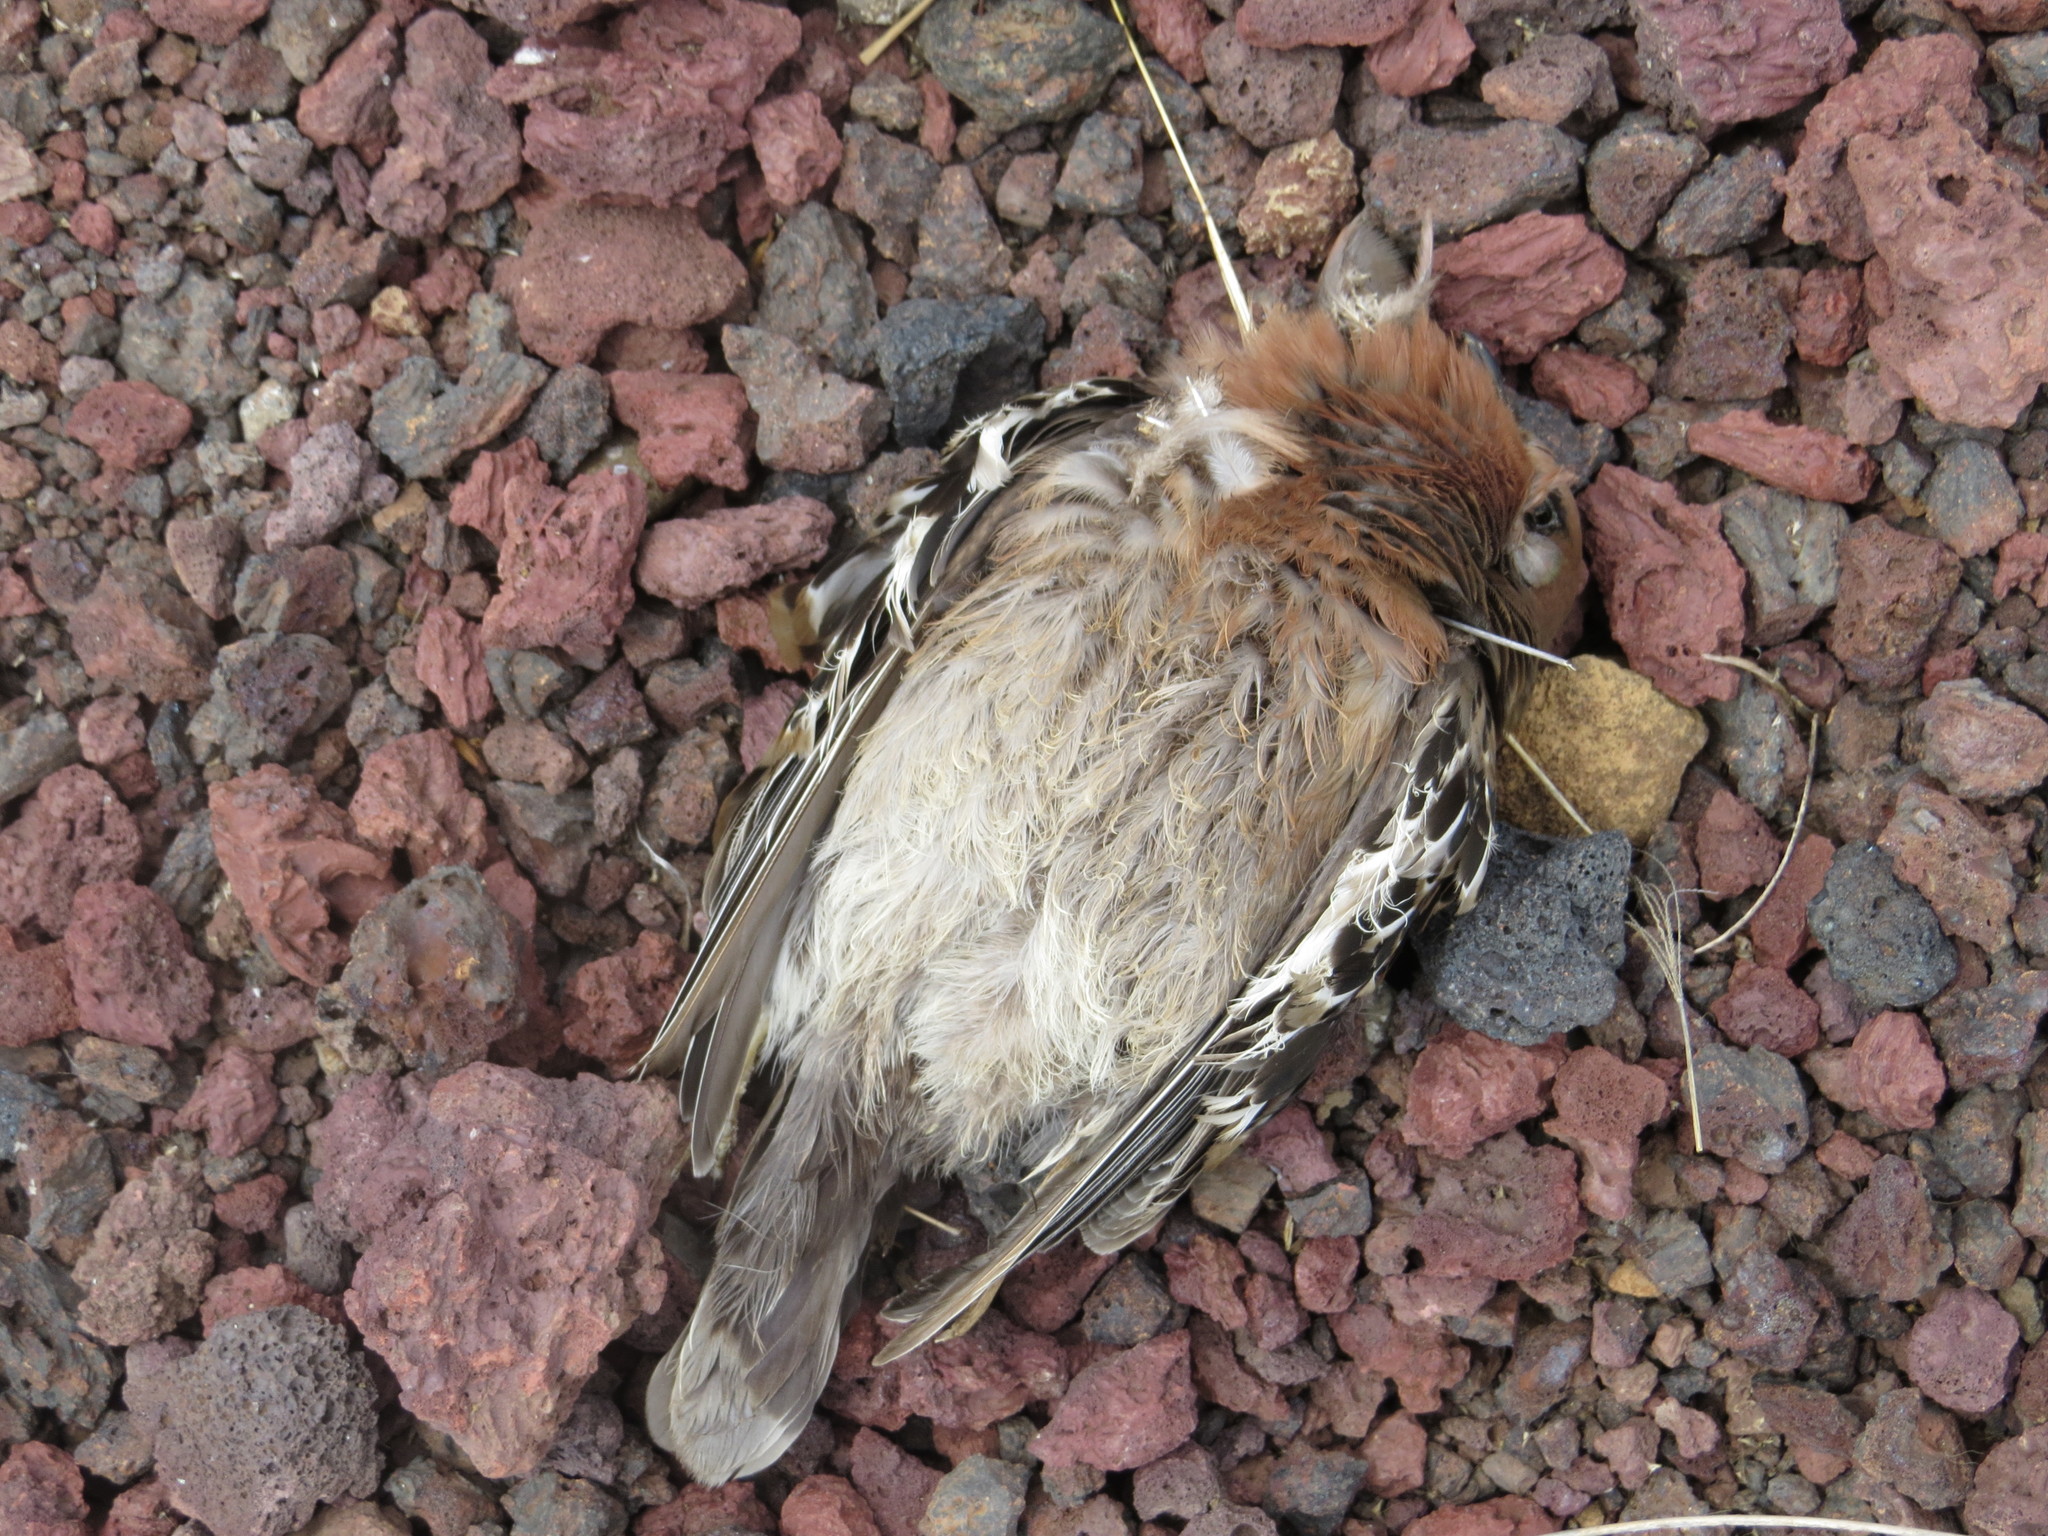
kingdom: Animalia
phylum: Chordata
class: Aves
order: Columbiformes
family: Columbidae
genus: Zenaida
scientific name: Zenaida galapagoensis
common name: Galapagos dove
